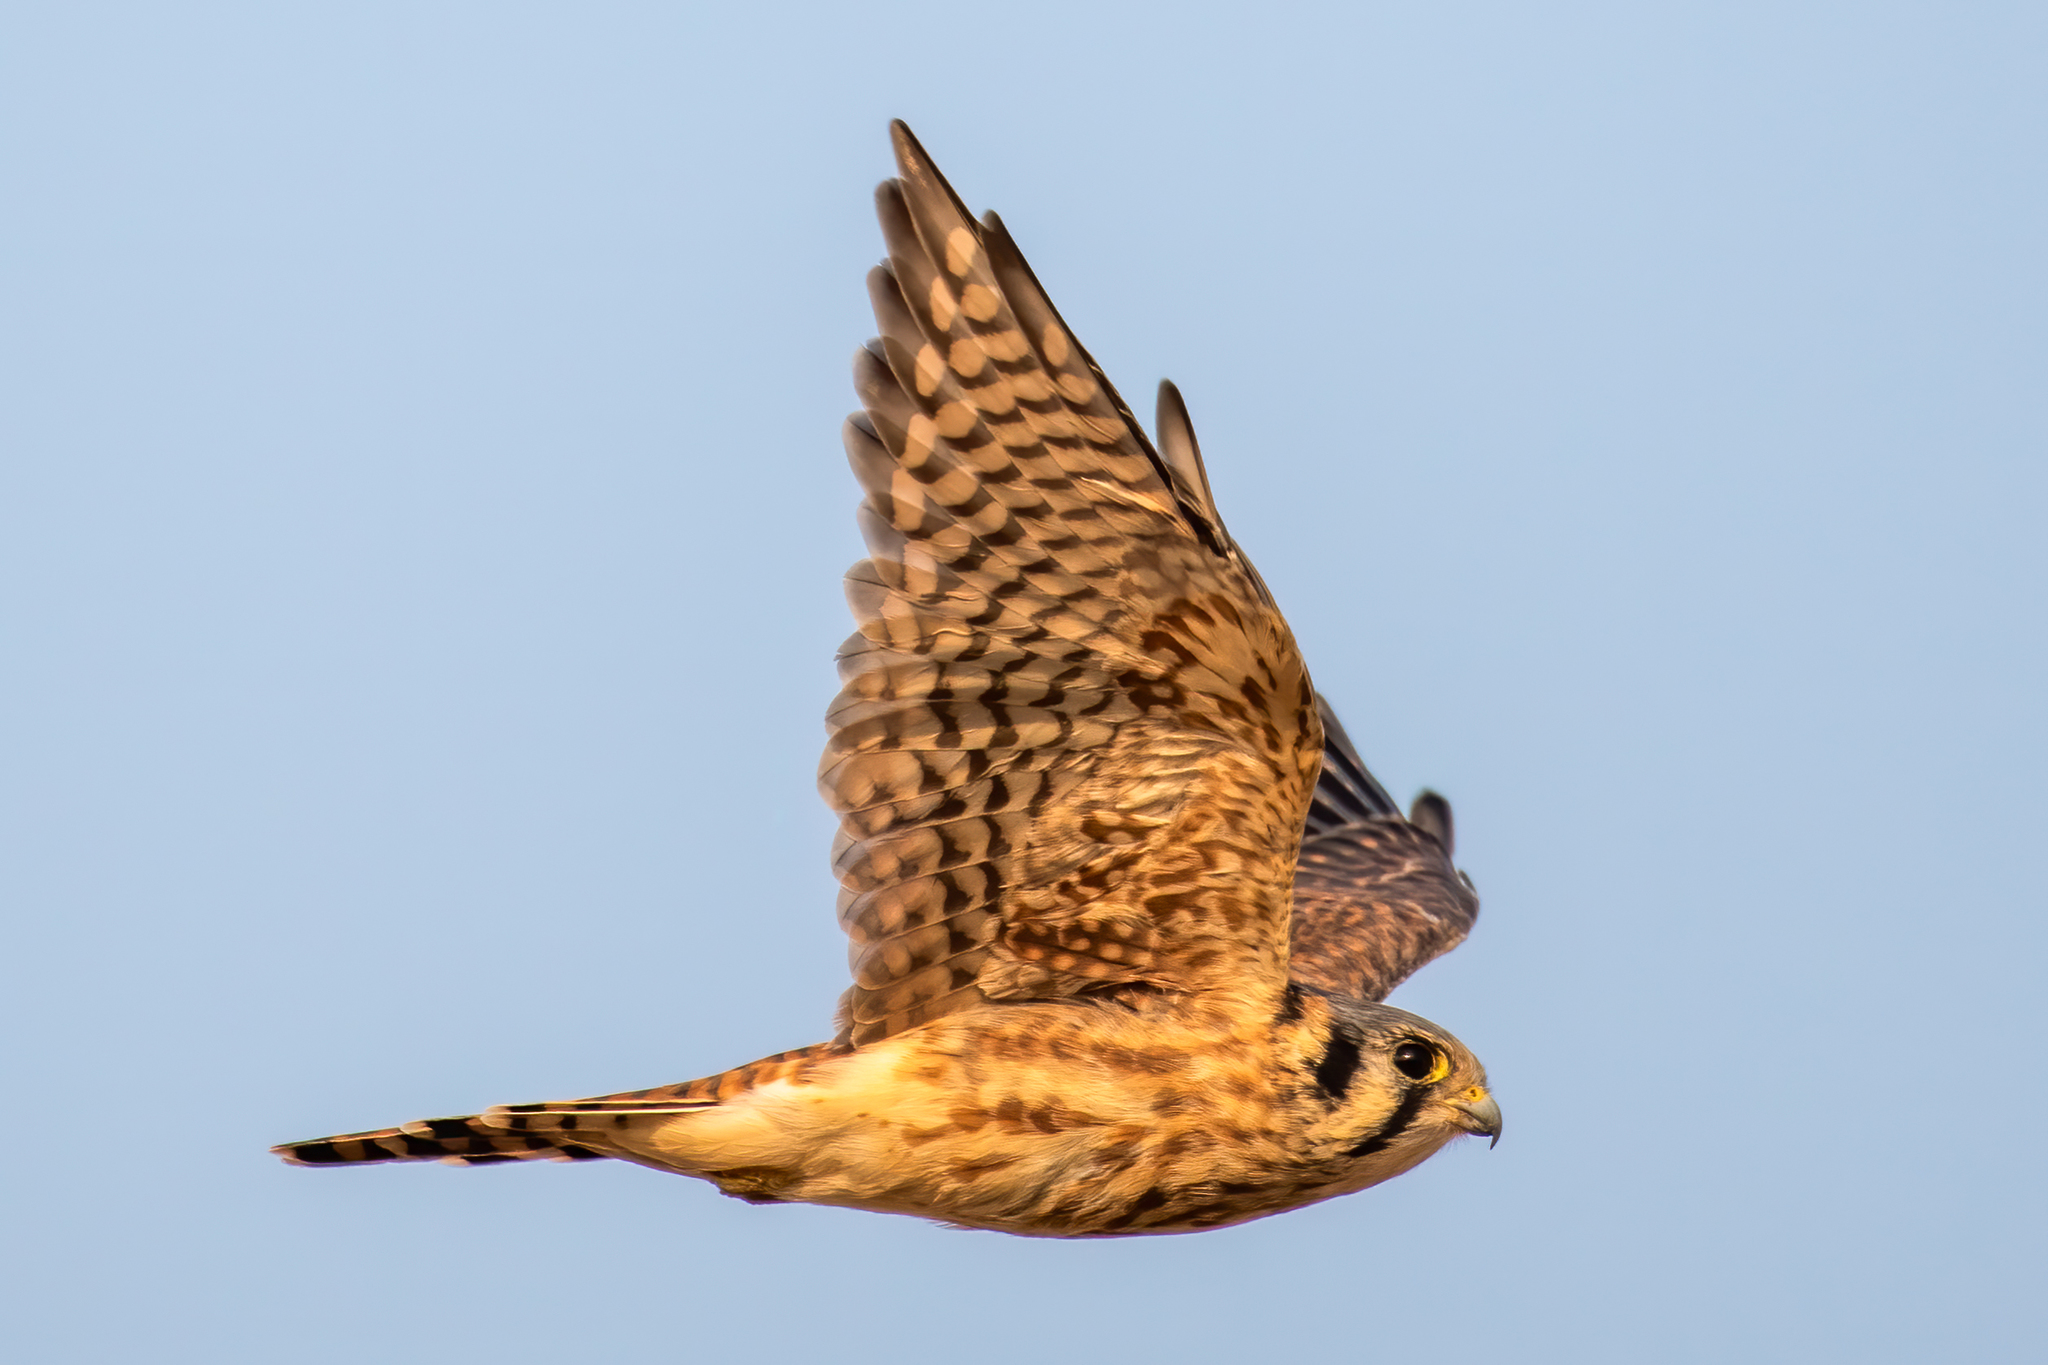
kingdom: Animalia
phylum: Chordata
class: Aves
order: Falconiformes
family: Falconidae
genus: Falco
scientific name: Falco sparverius
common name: American kestrel
